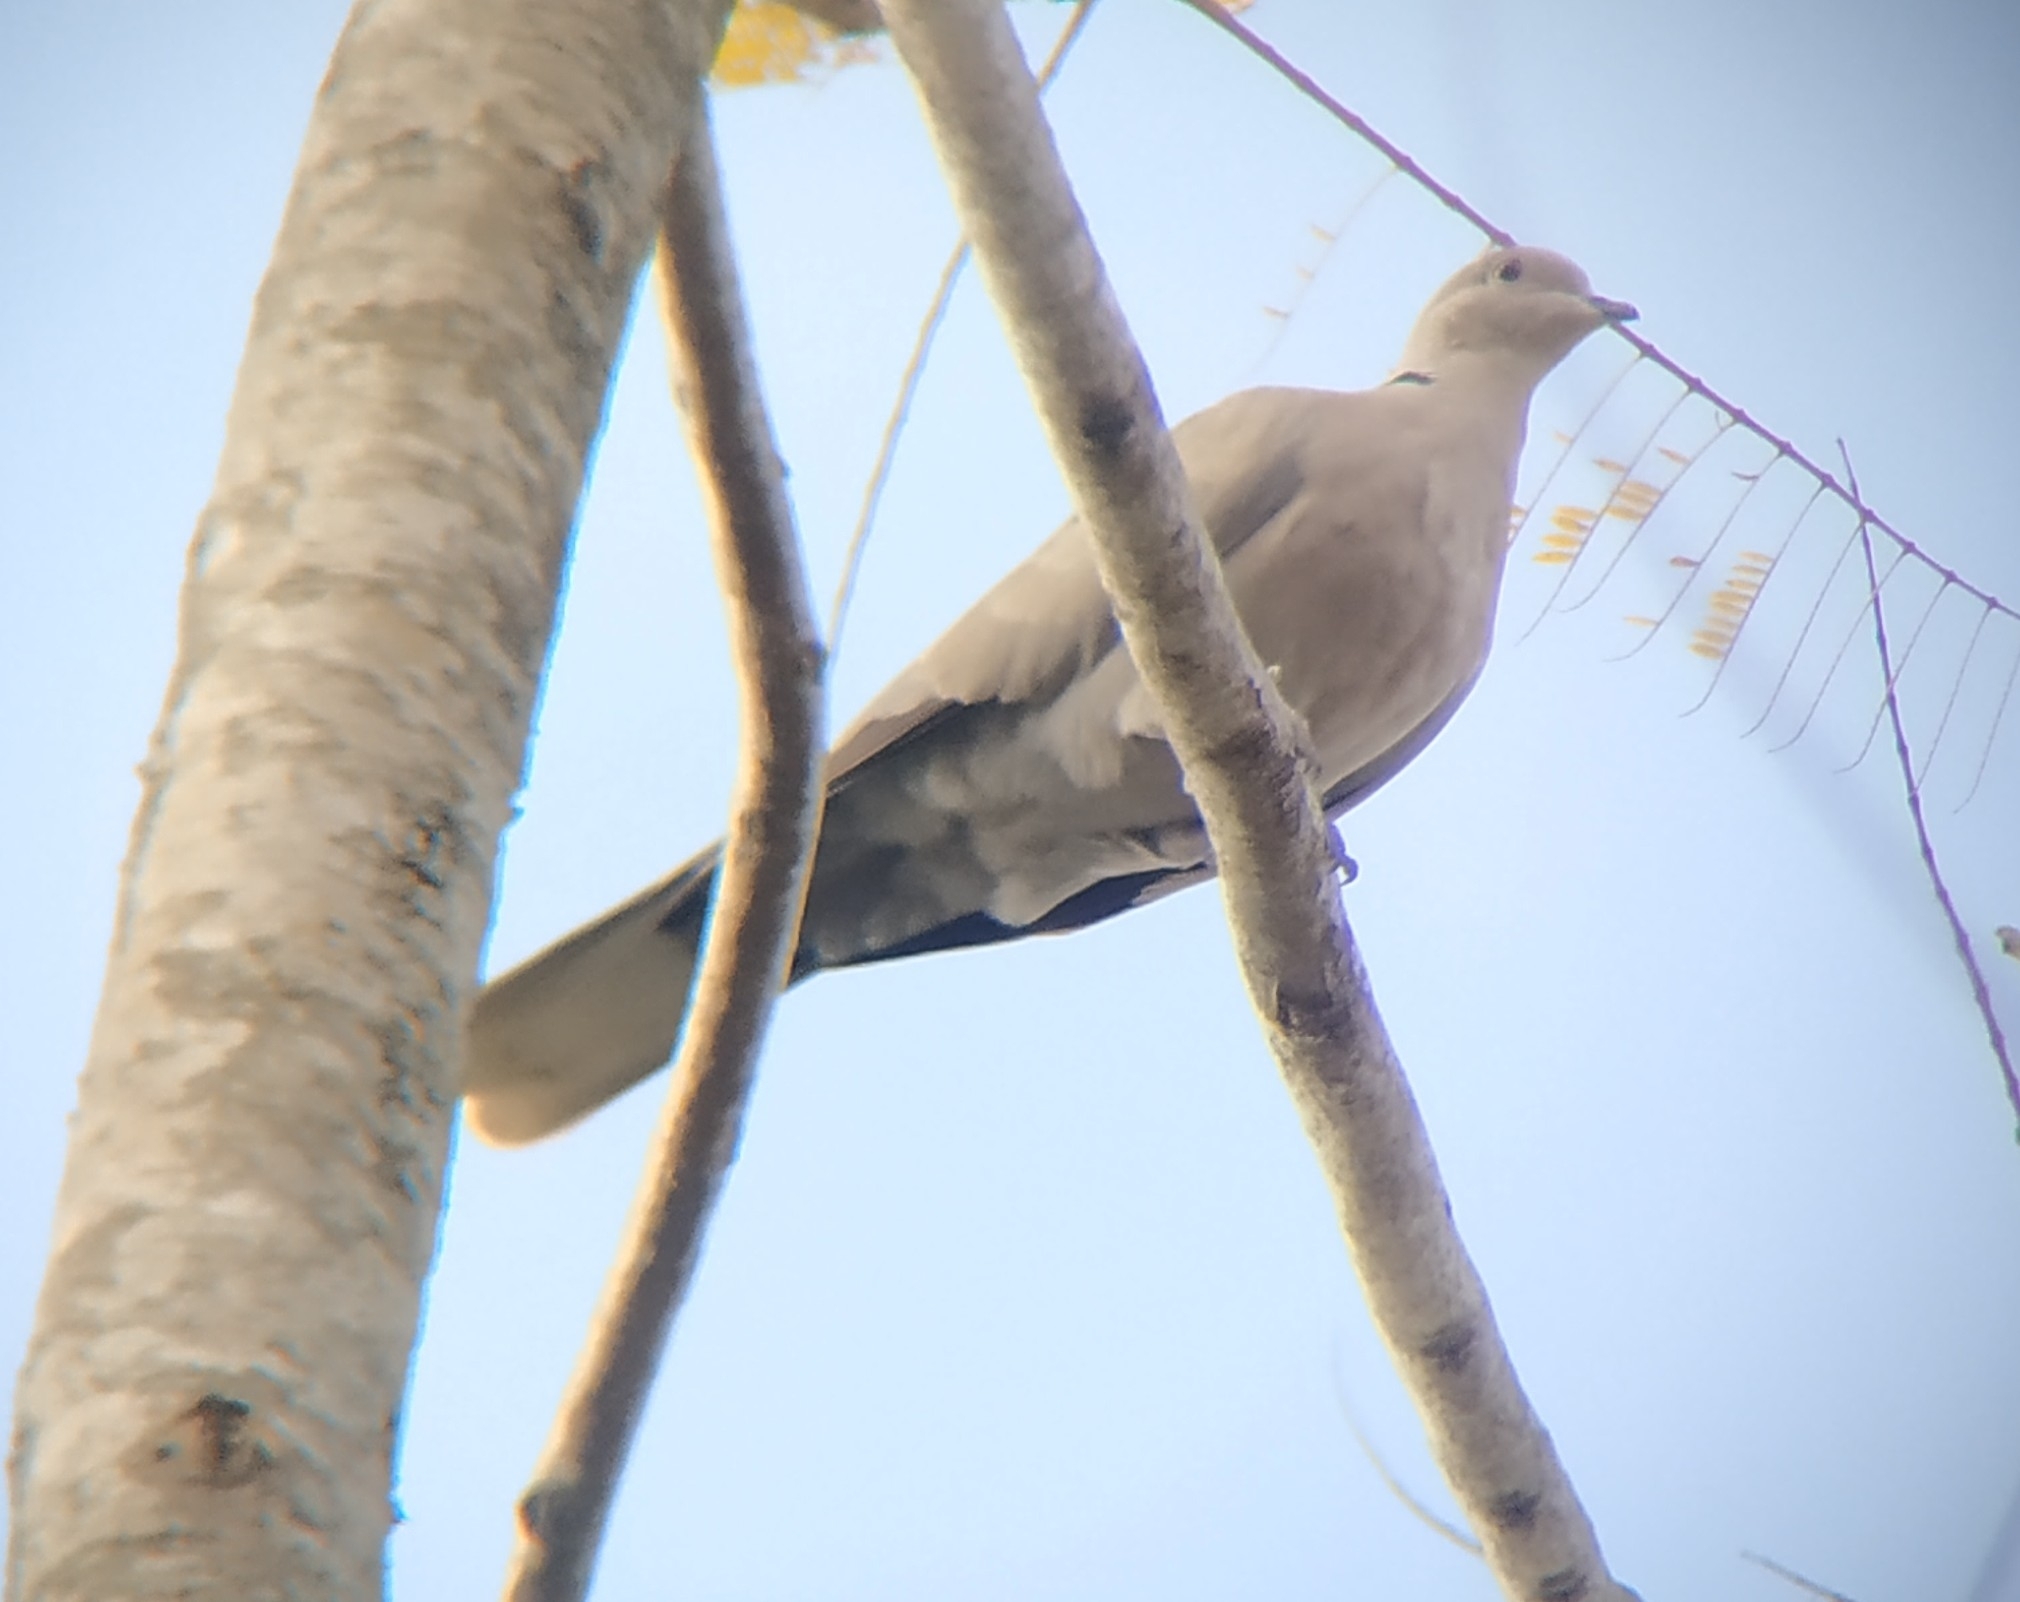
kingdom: Animalia
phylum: Chordata
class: Aves
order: Columbiformes
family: Columbidae
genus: Streptopelia
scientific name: Streptopelia decaocto
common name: Eurasian collared dove
